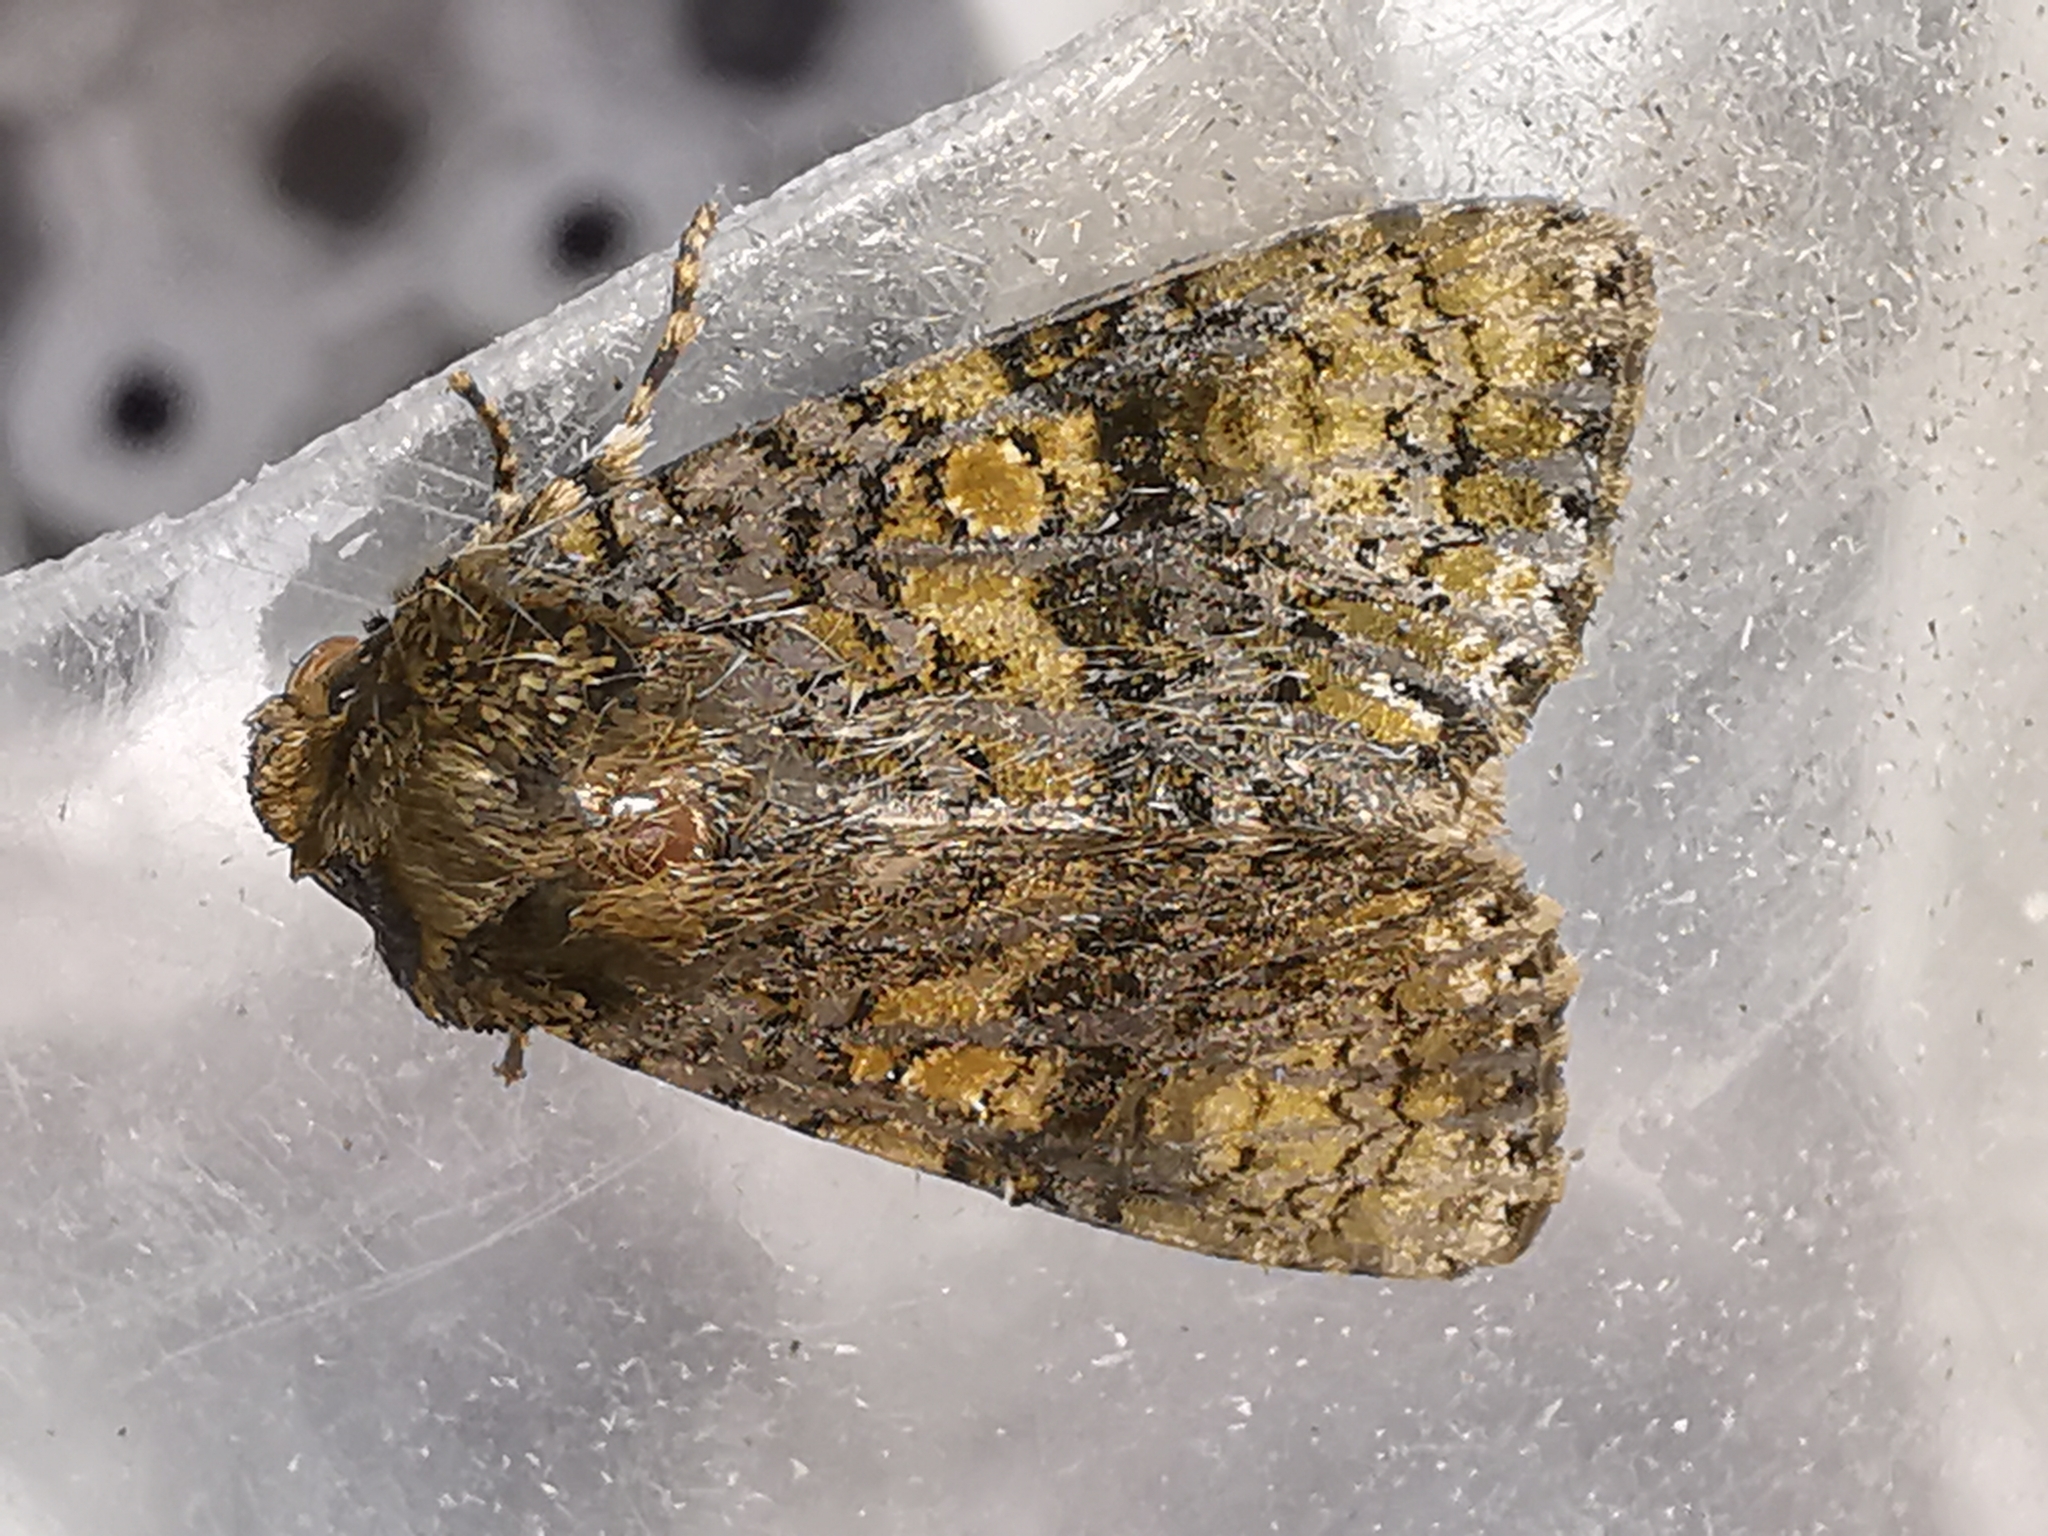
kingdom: Animalia
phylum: Arthropoda
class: Insecta
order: Lepidoptera
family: Noctuidae
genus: Craniophora
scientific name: Craniophora ligustri
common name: Coronet
